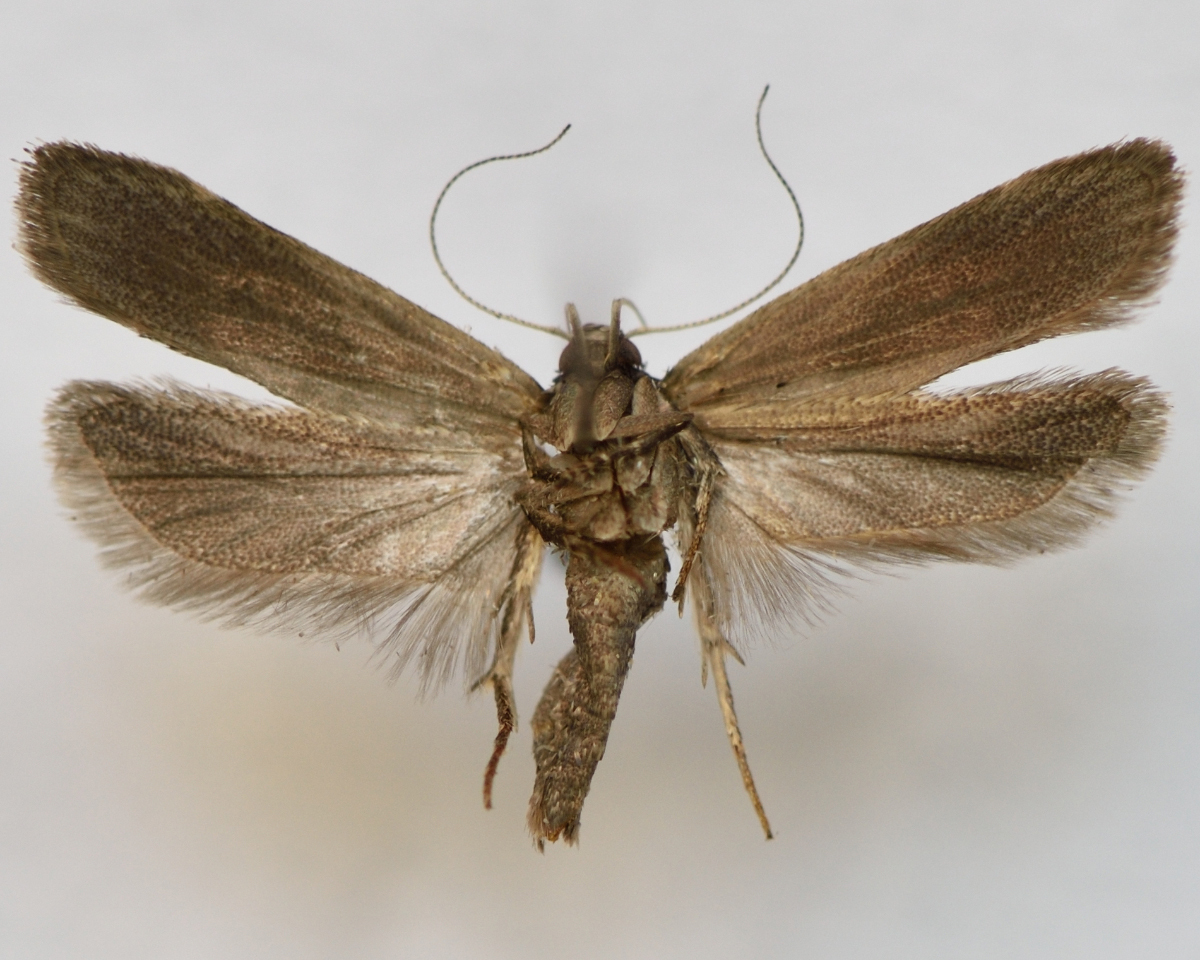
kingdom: Animalia
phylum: Arthropoda
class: Insecta
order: Lepidoptera
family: Gelechiidae
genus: Anacampsis
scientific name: Anacampsis blattariella
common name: Birch sober
